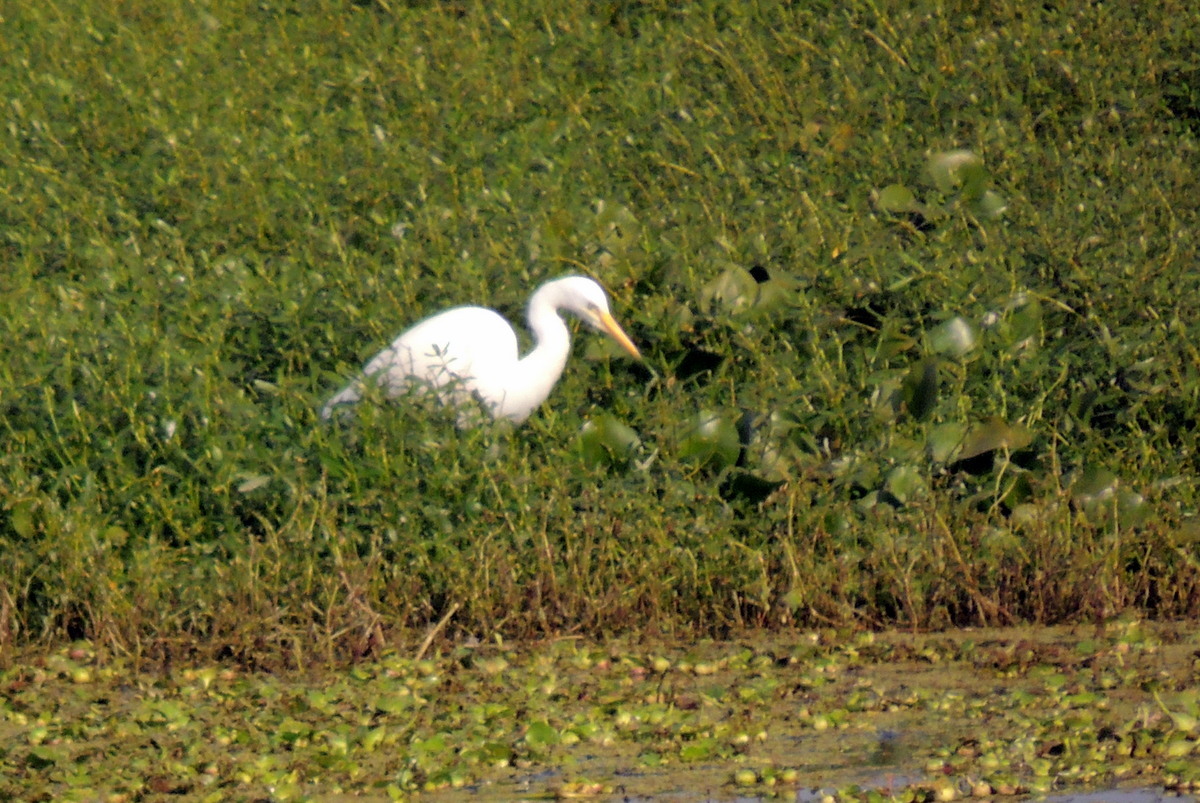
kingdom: Animalia
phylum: Chordata
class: Aves
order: Pelecaniformes
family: Ardeidae
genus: Ardea
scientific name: Ardea alba
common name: Great egret
